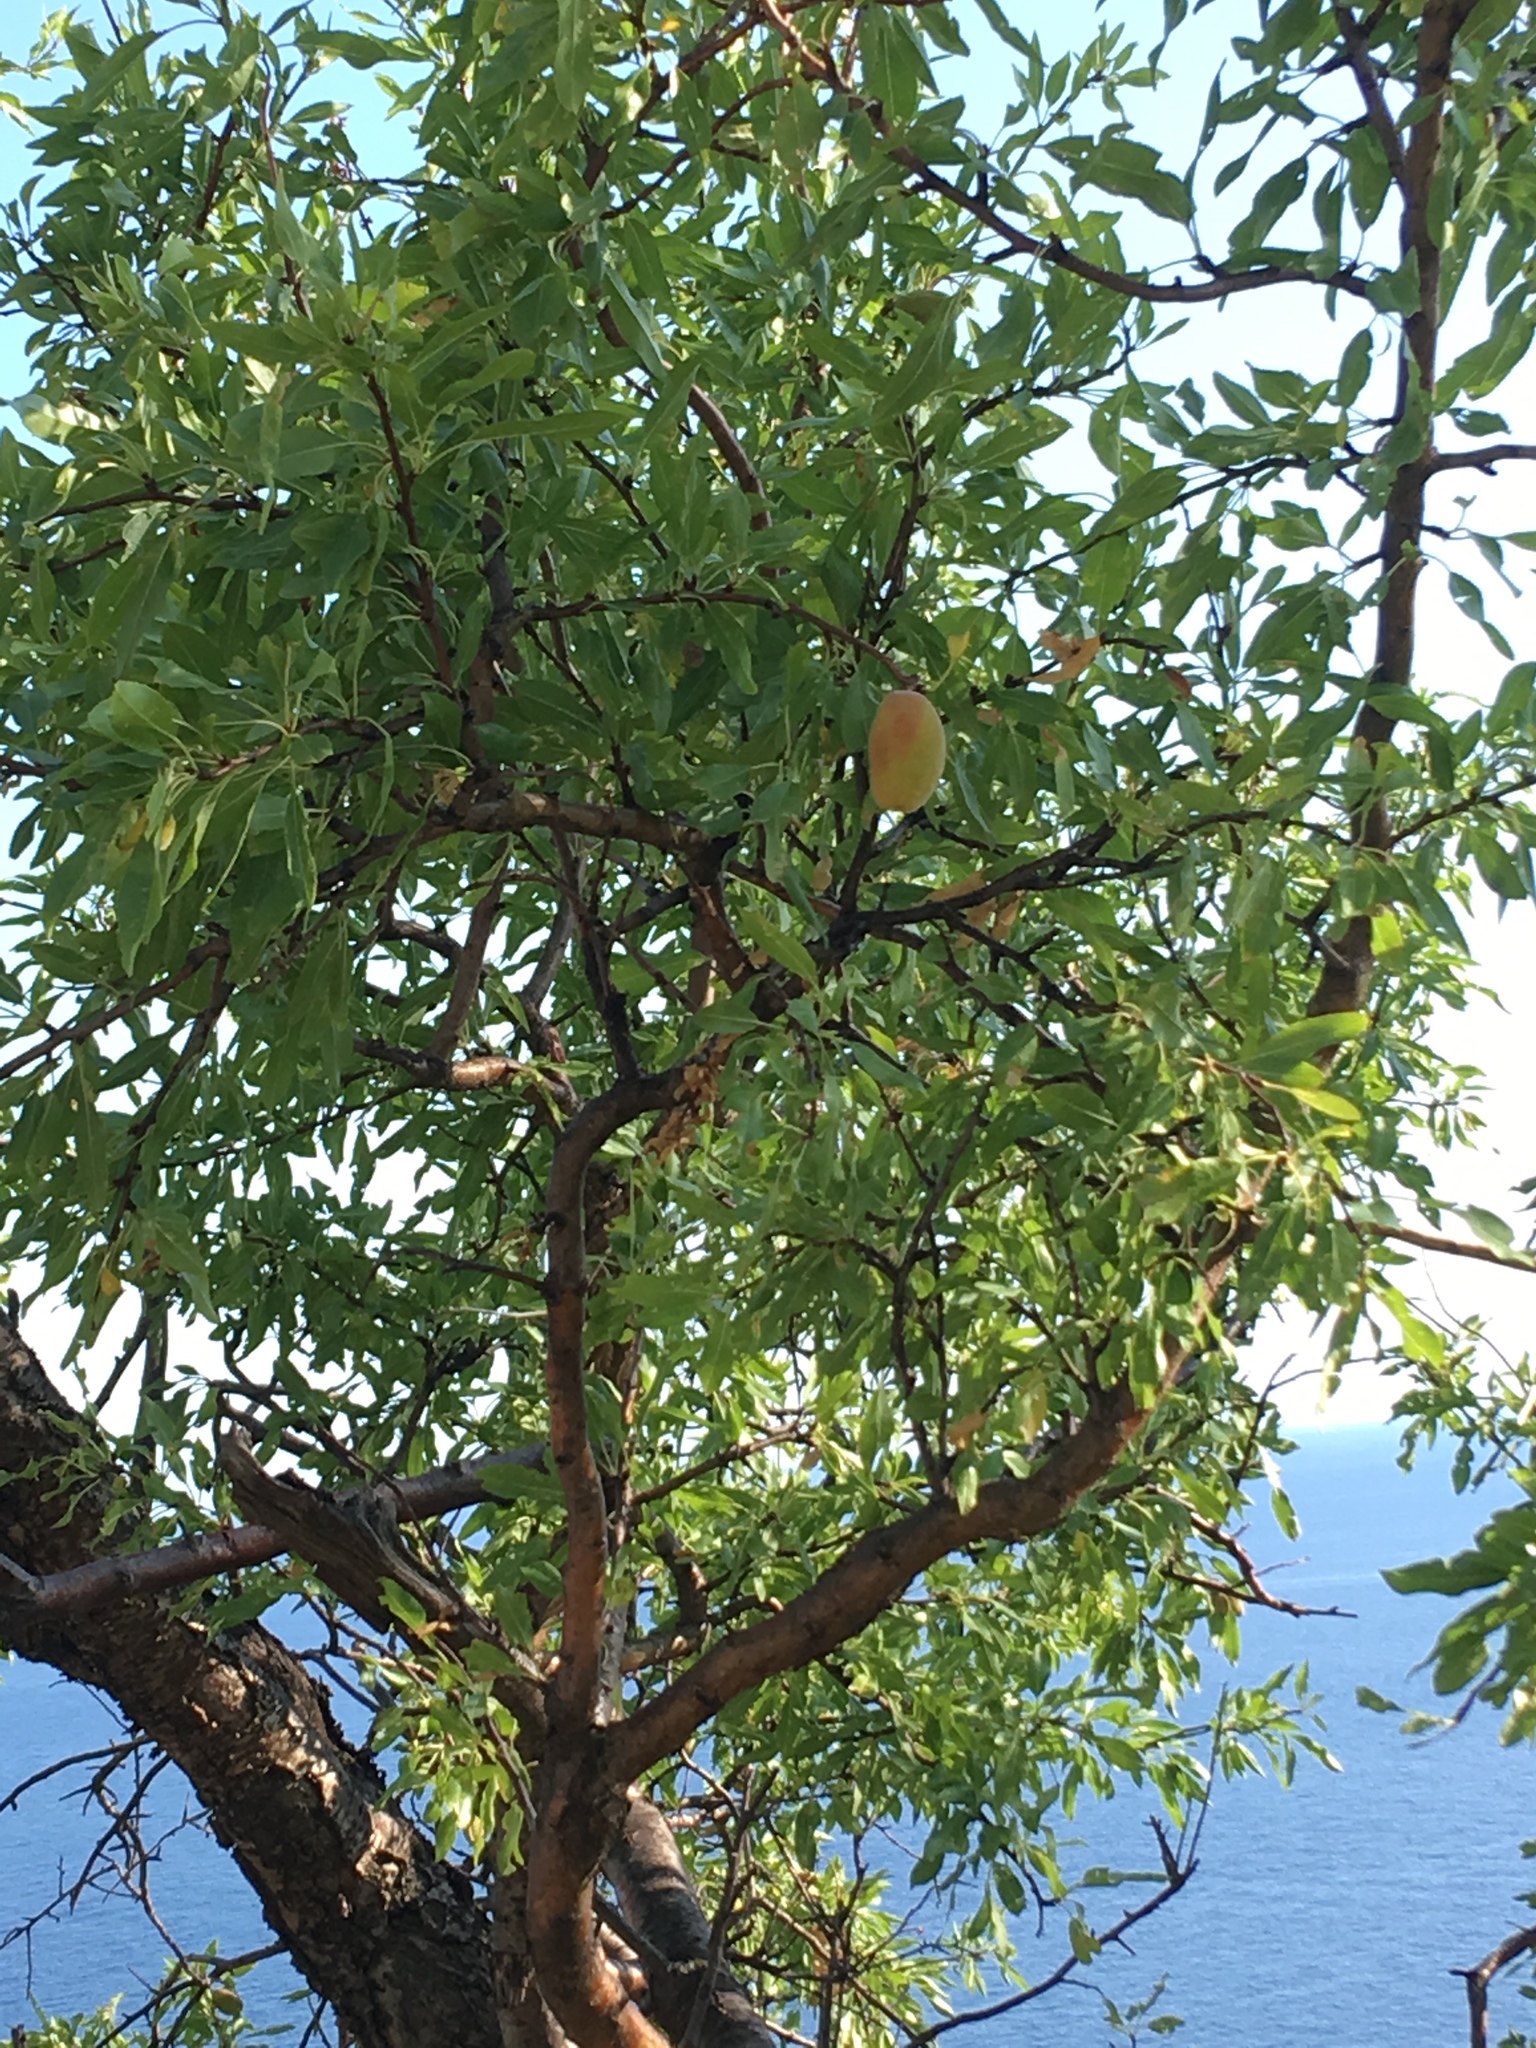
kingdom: Plantae
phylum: Tracheophyta
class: Magnoliopsida
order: Rosales
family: Rosaceae
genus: Prunus
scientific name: Prunus amygdalus
